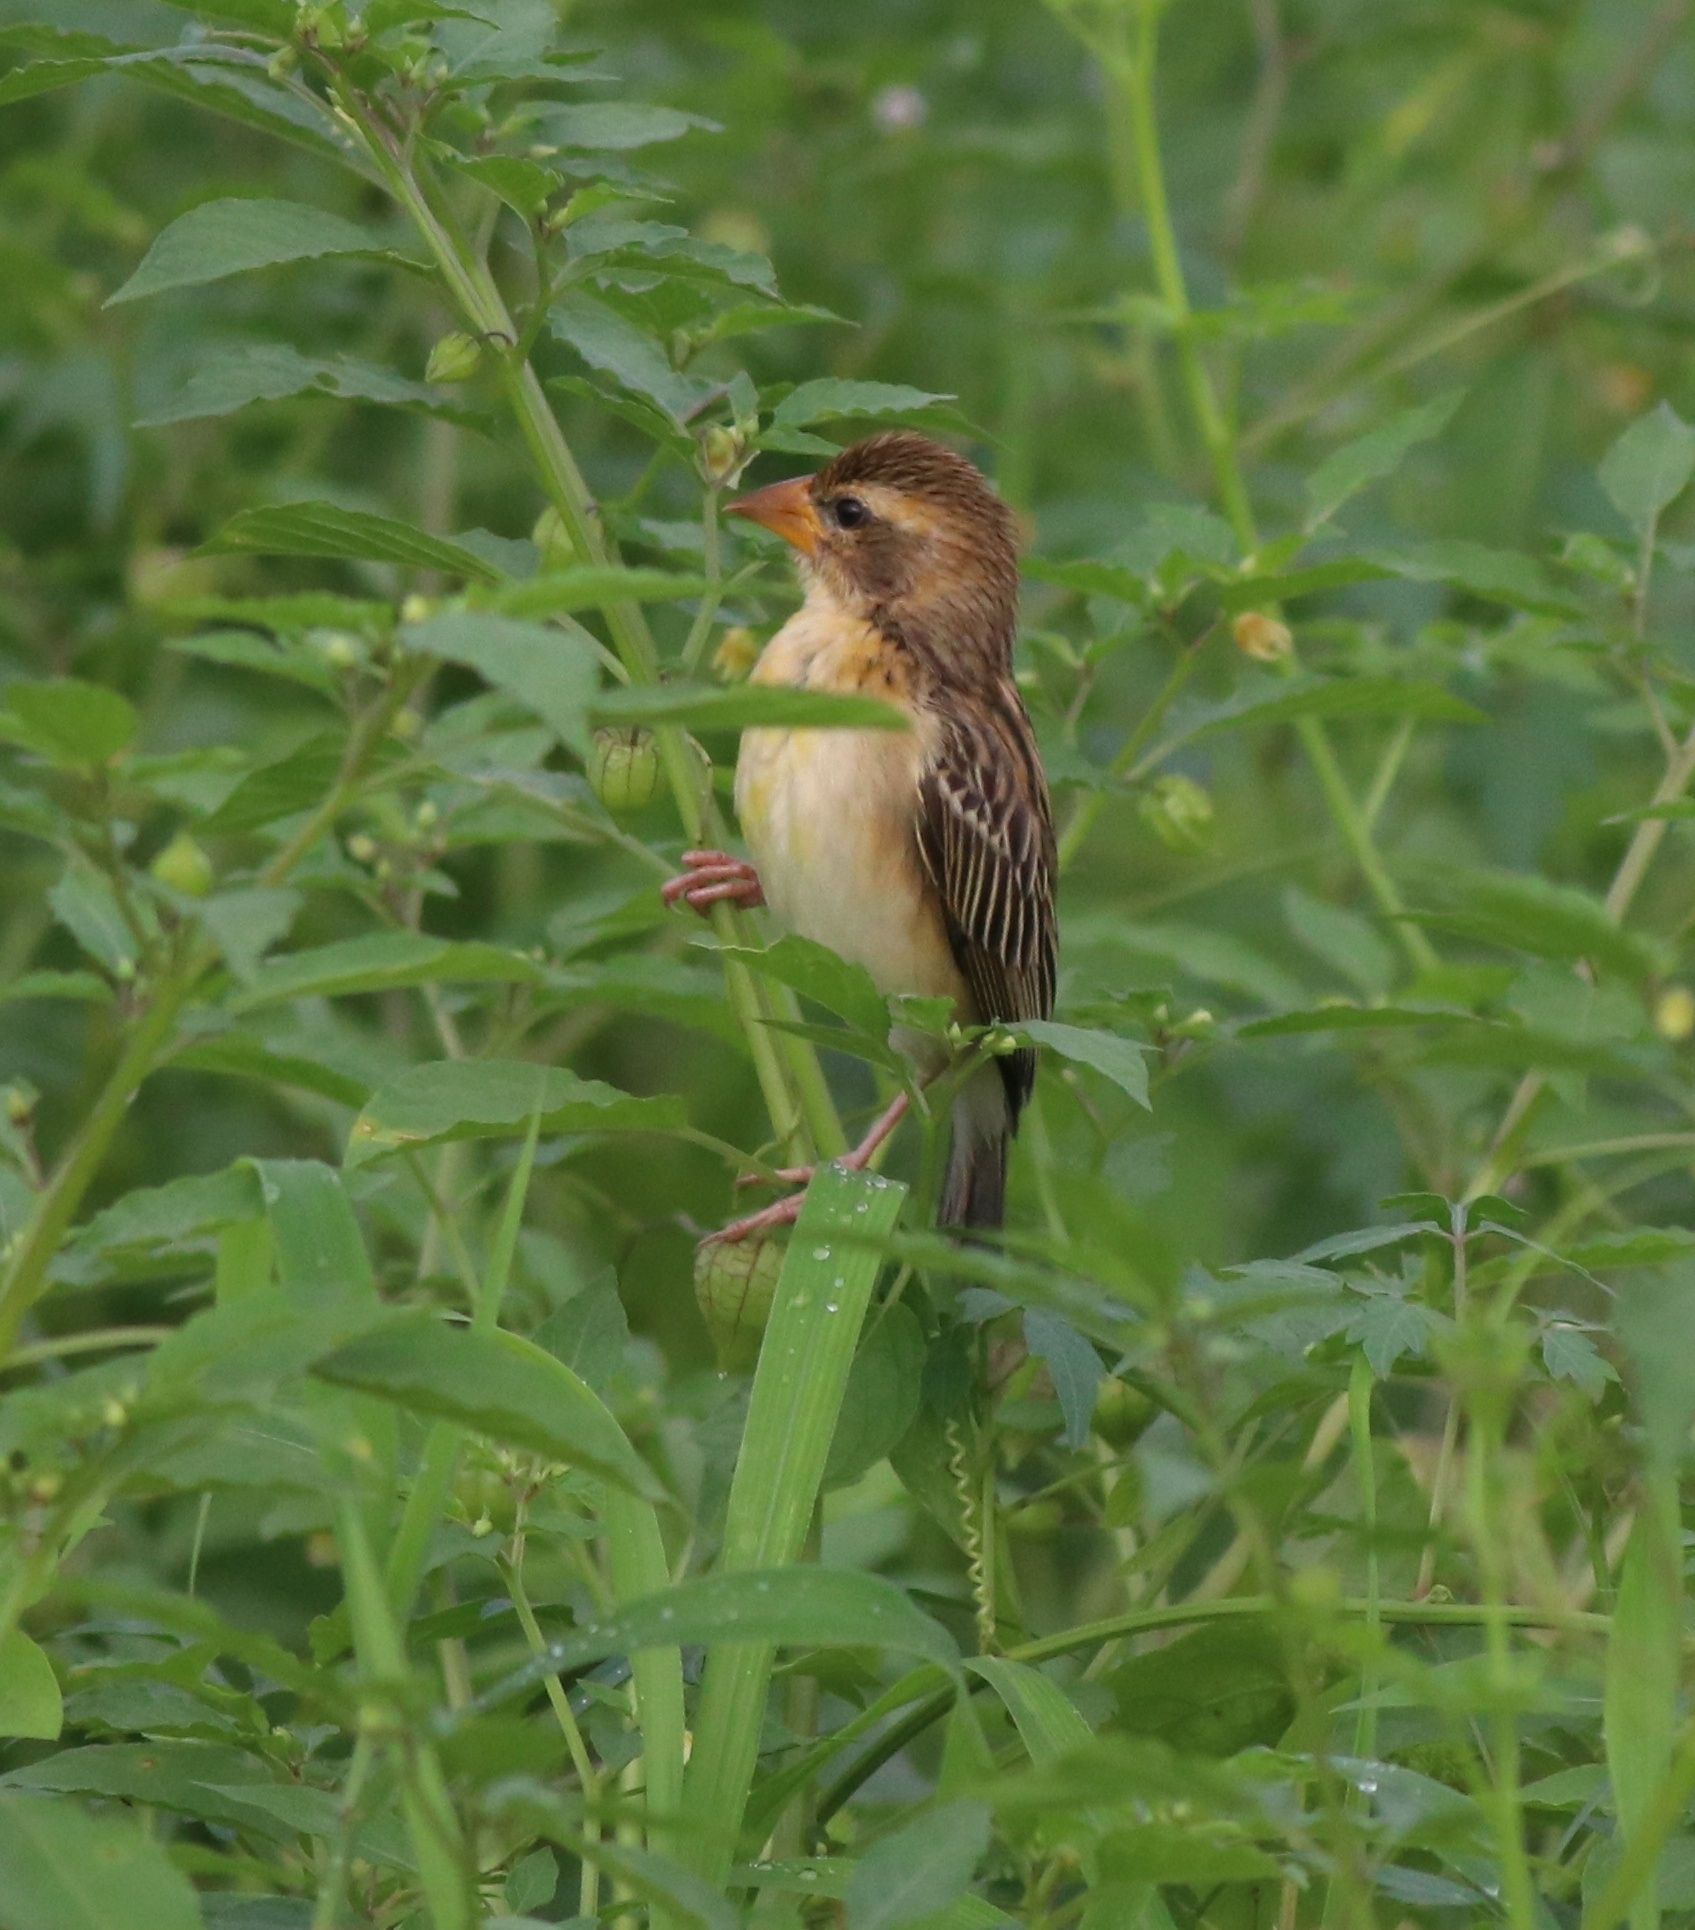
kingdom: Animalia
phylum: Chordata
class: Aves
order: Passeriformes
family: Ploceidae
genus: Ploceus
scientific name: Ploceus philippinus
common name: Baya weaver
